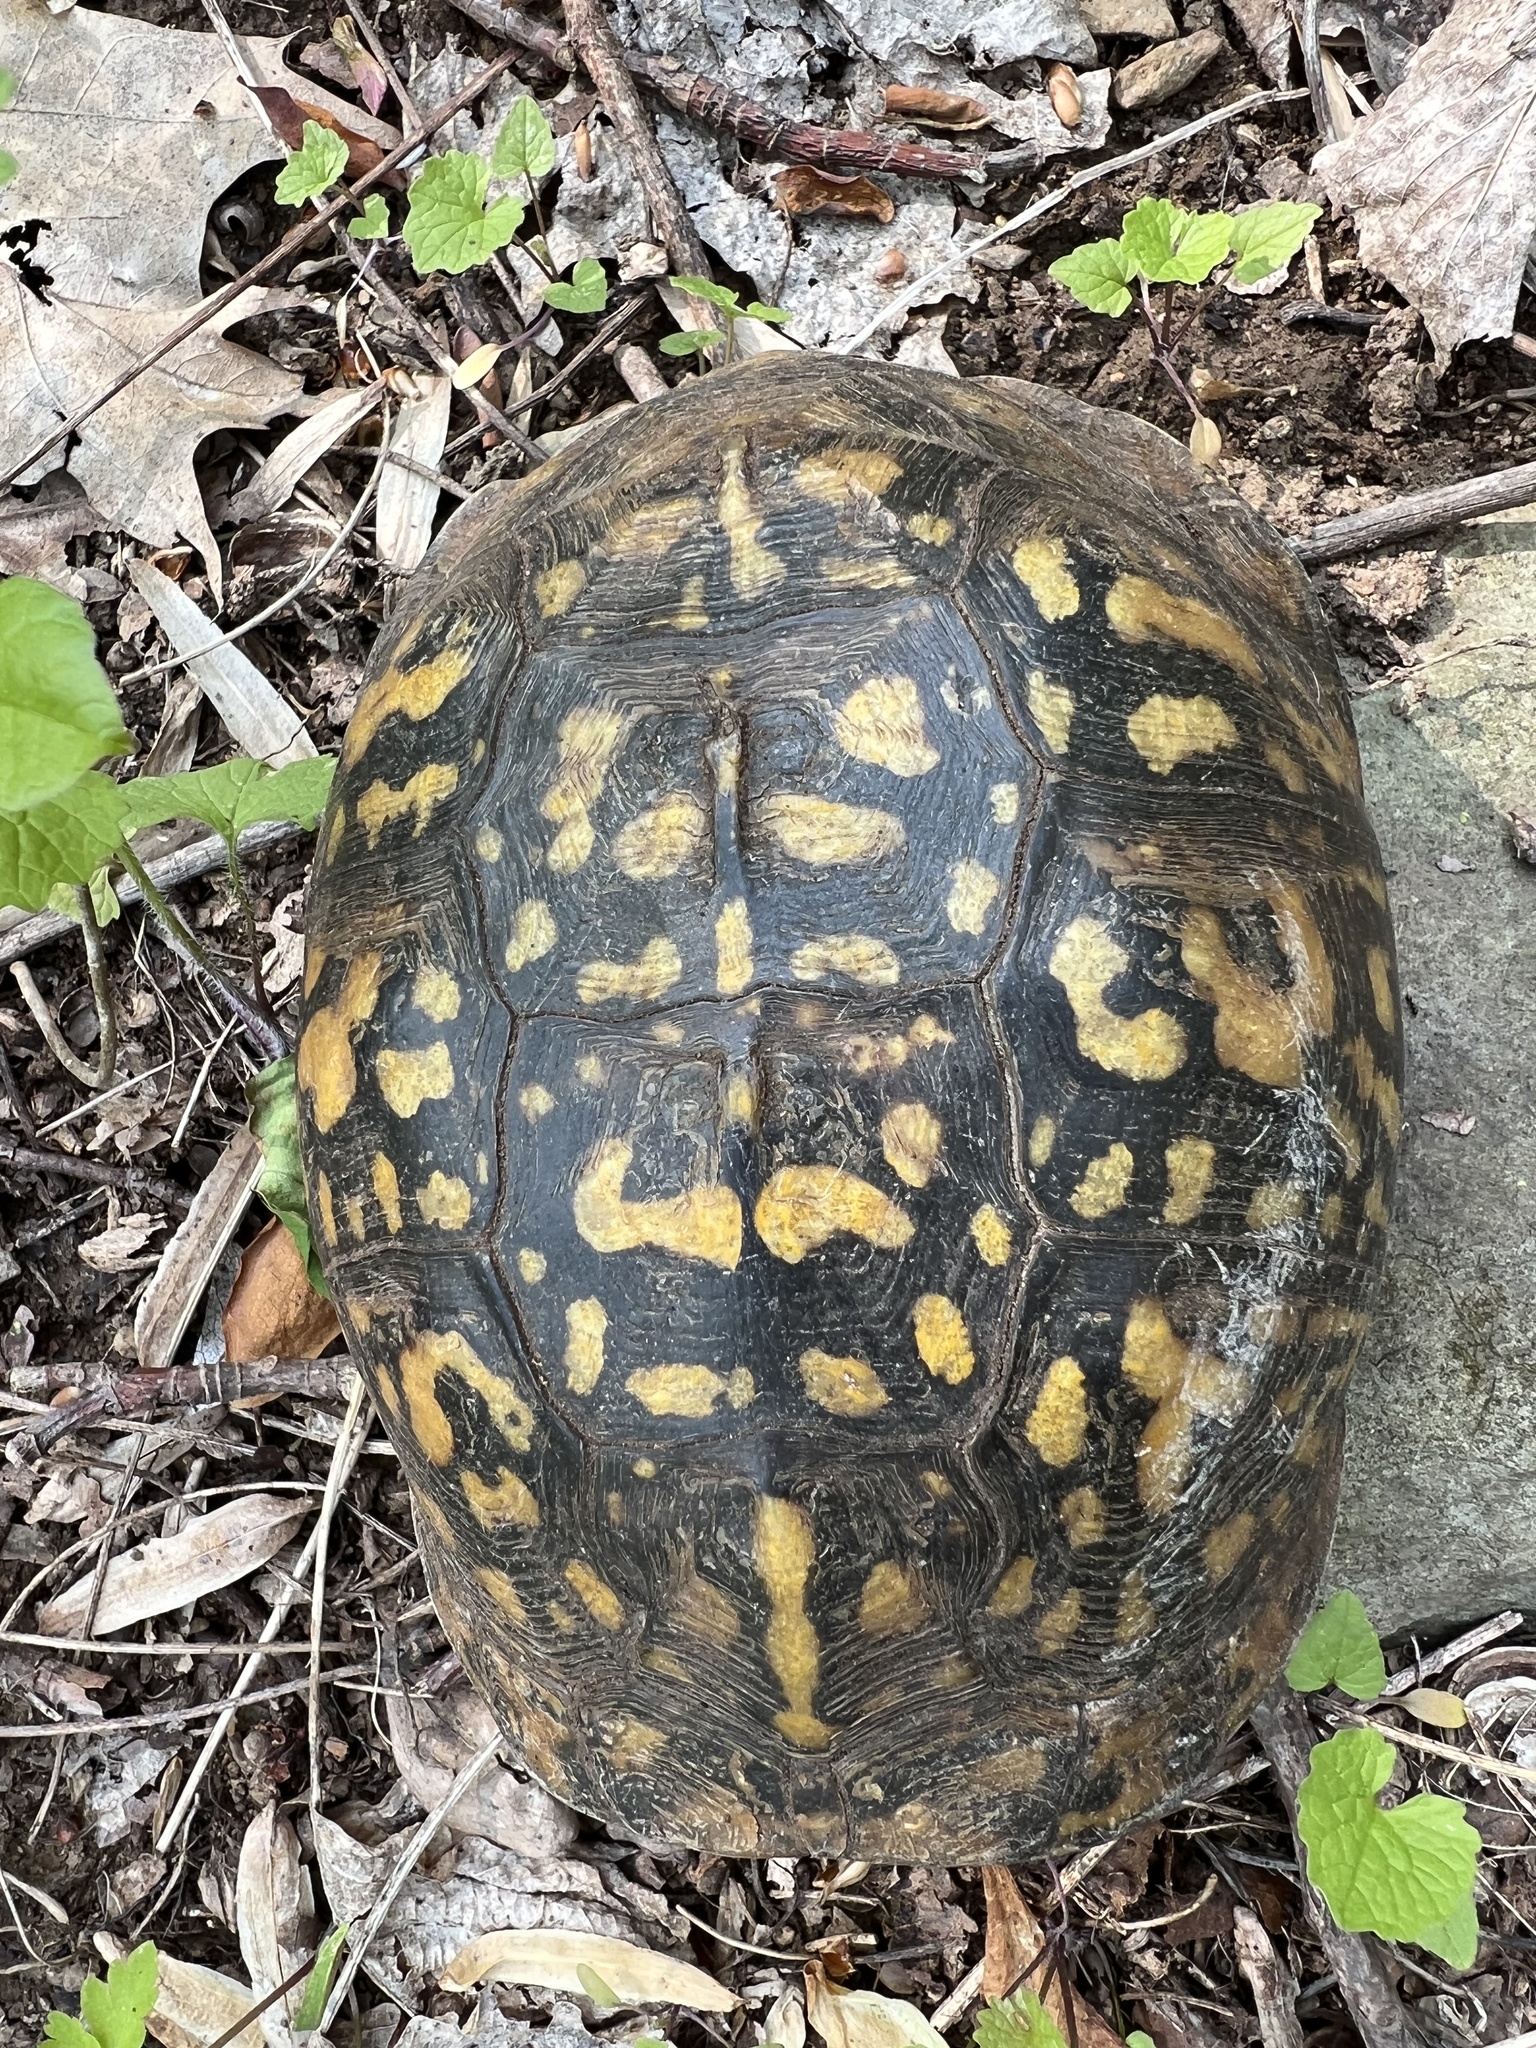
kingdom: Animalia
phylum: Chordata
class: Testudines
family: Emydidae
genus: Terrapene
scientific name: Terrapene carolina
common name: Common box turtle
